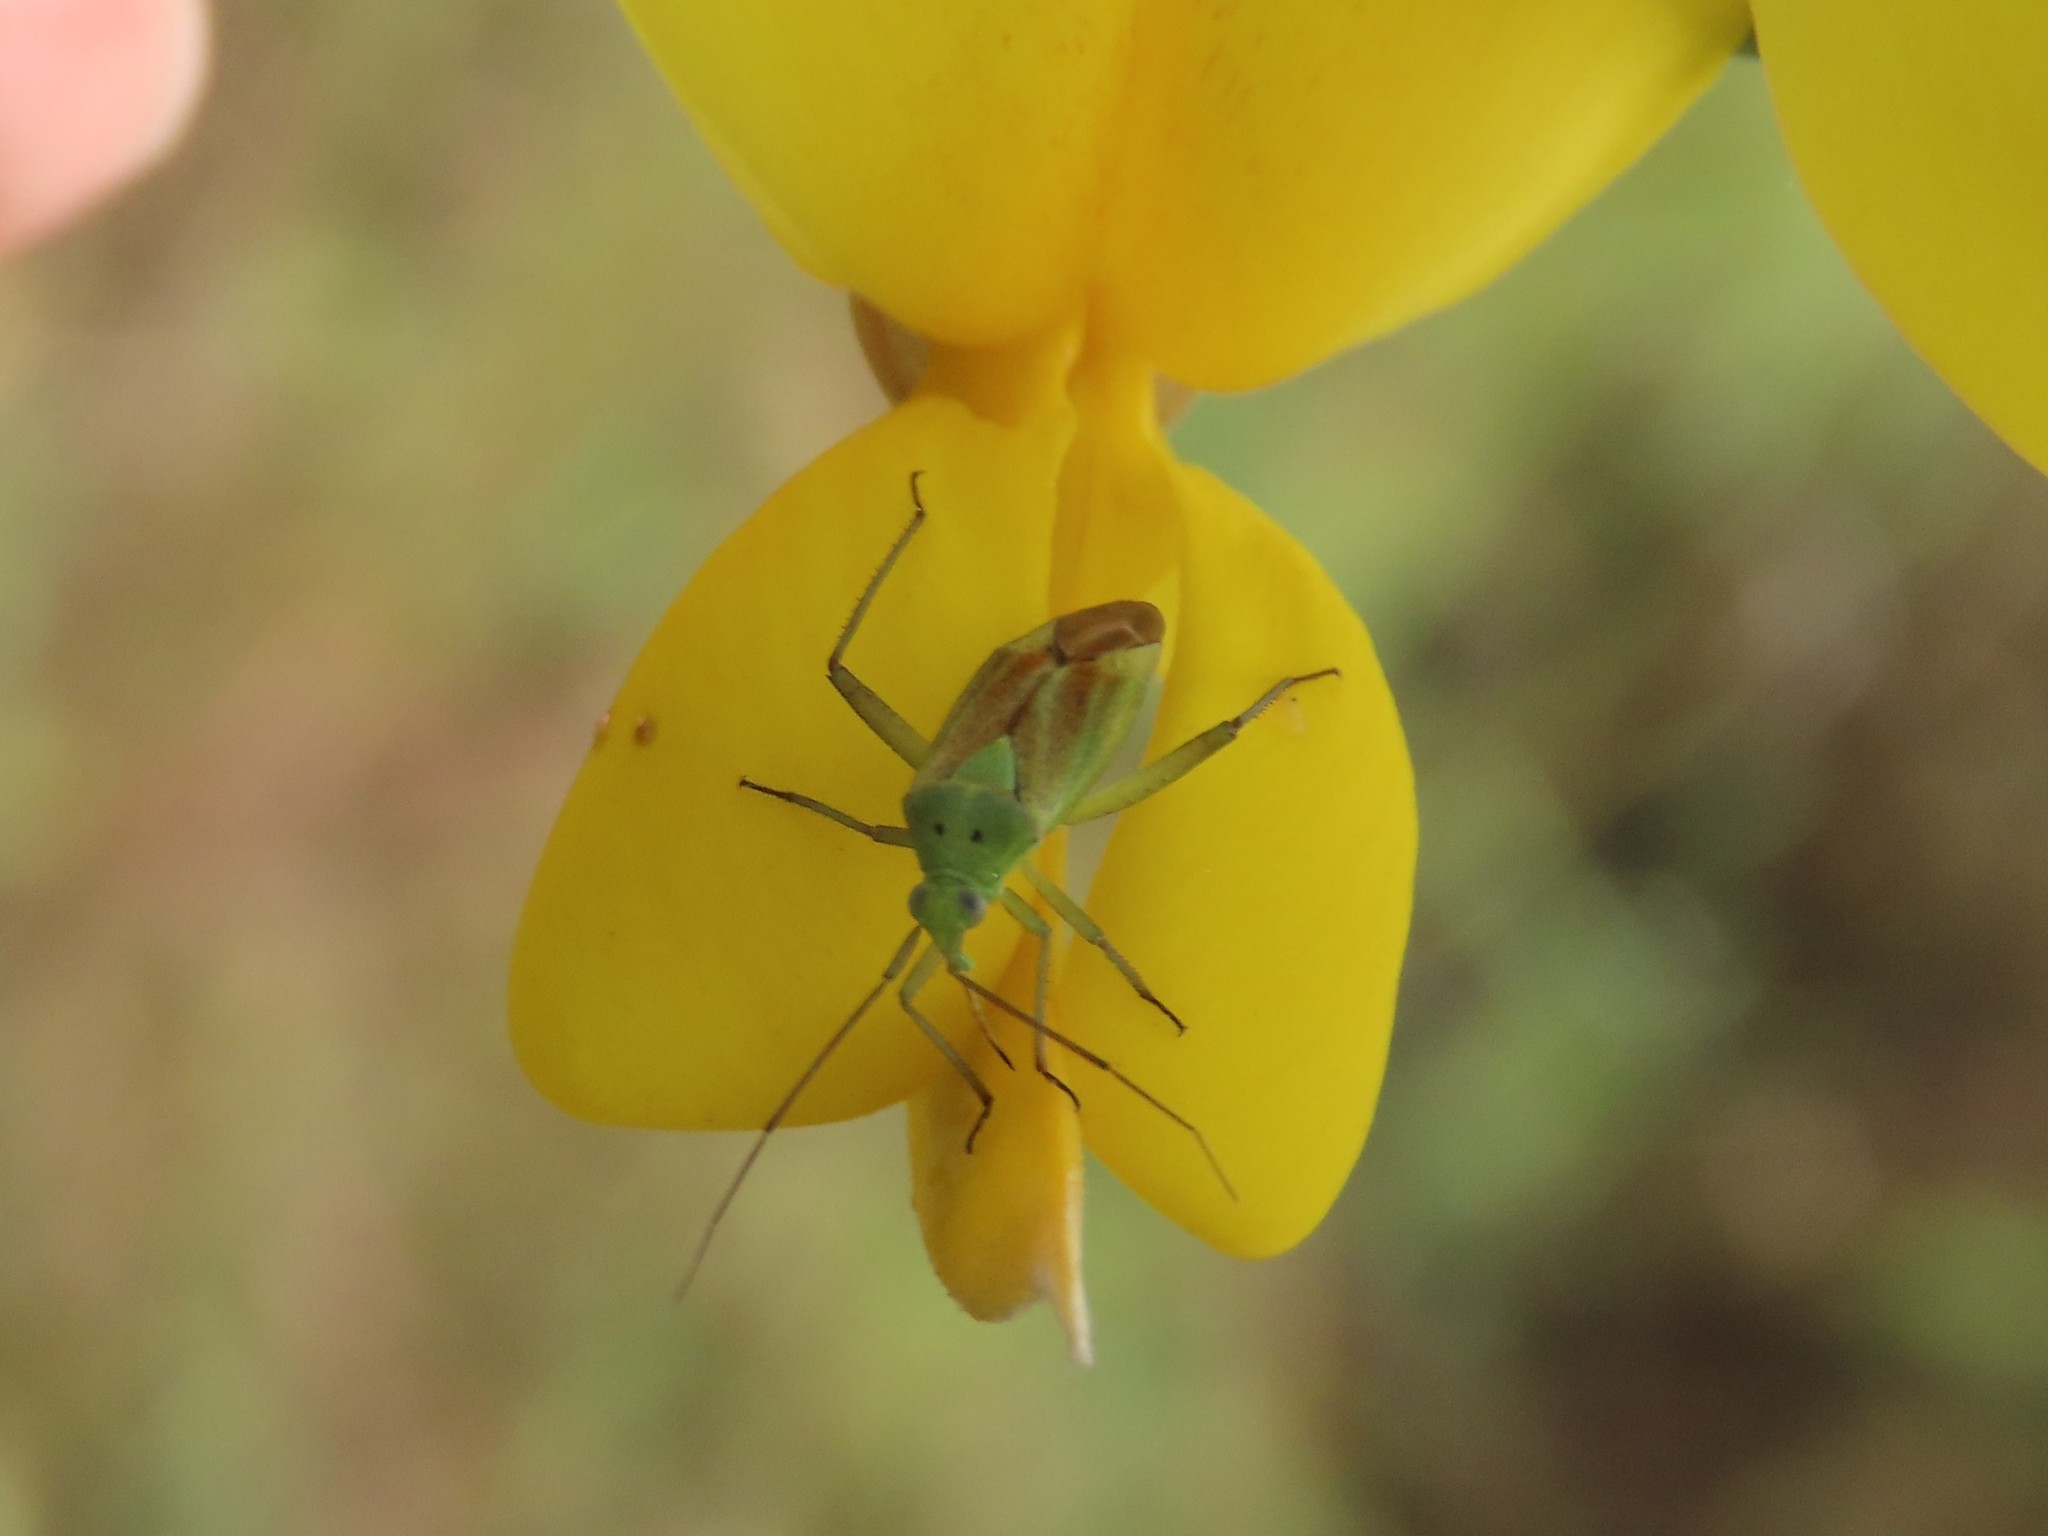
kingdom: Animalia
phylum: Arthropoda
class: Insecta
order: Hemiptera
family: Miridae
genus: Closterotomus
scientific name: Closterotomus norvegicus
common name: Plant bug
